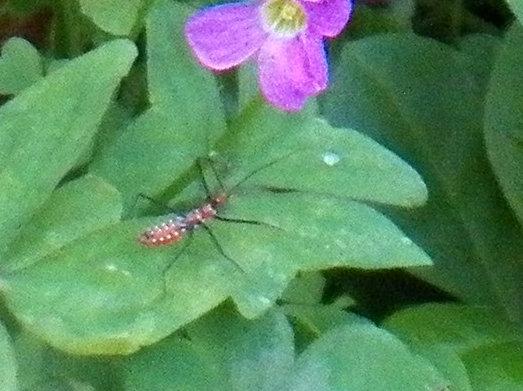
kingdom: Animalia
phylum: Arthropoda
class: Insecta
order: Hemiptera
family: Reduviidae
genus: Zelus
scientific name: Zelus longipes
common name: Milkweed assassin bug
